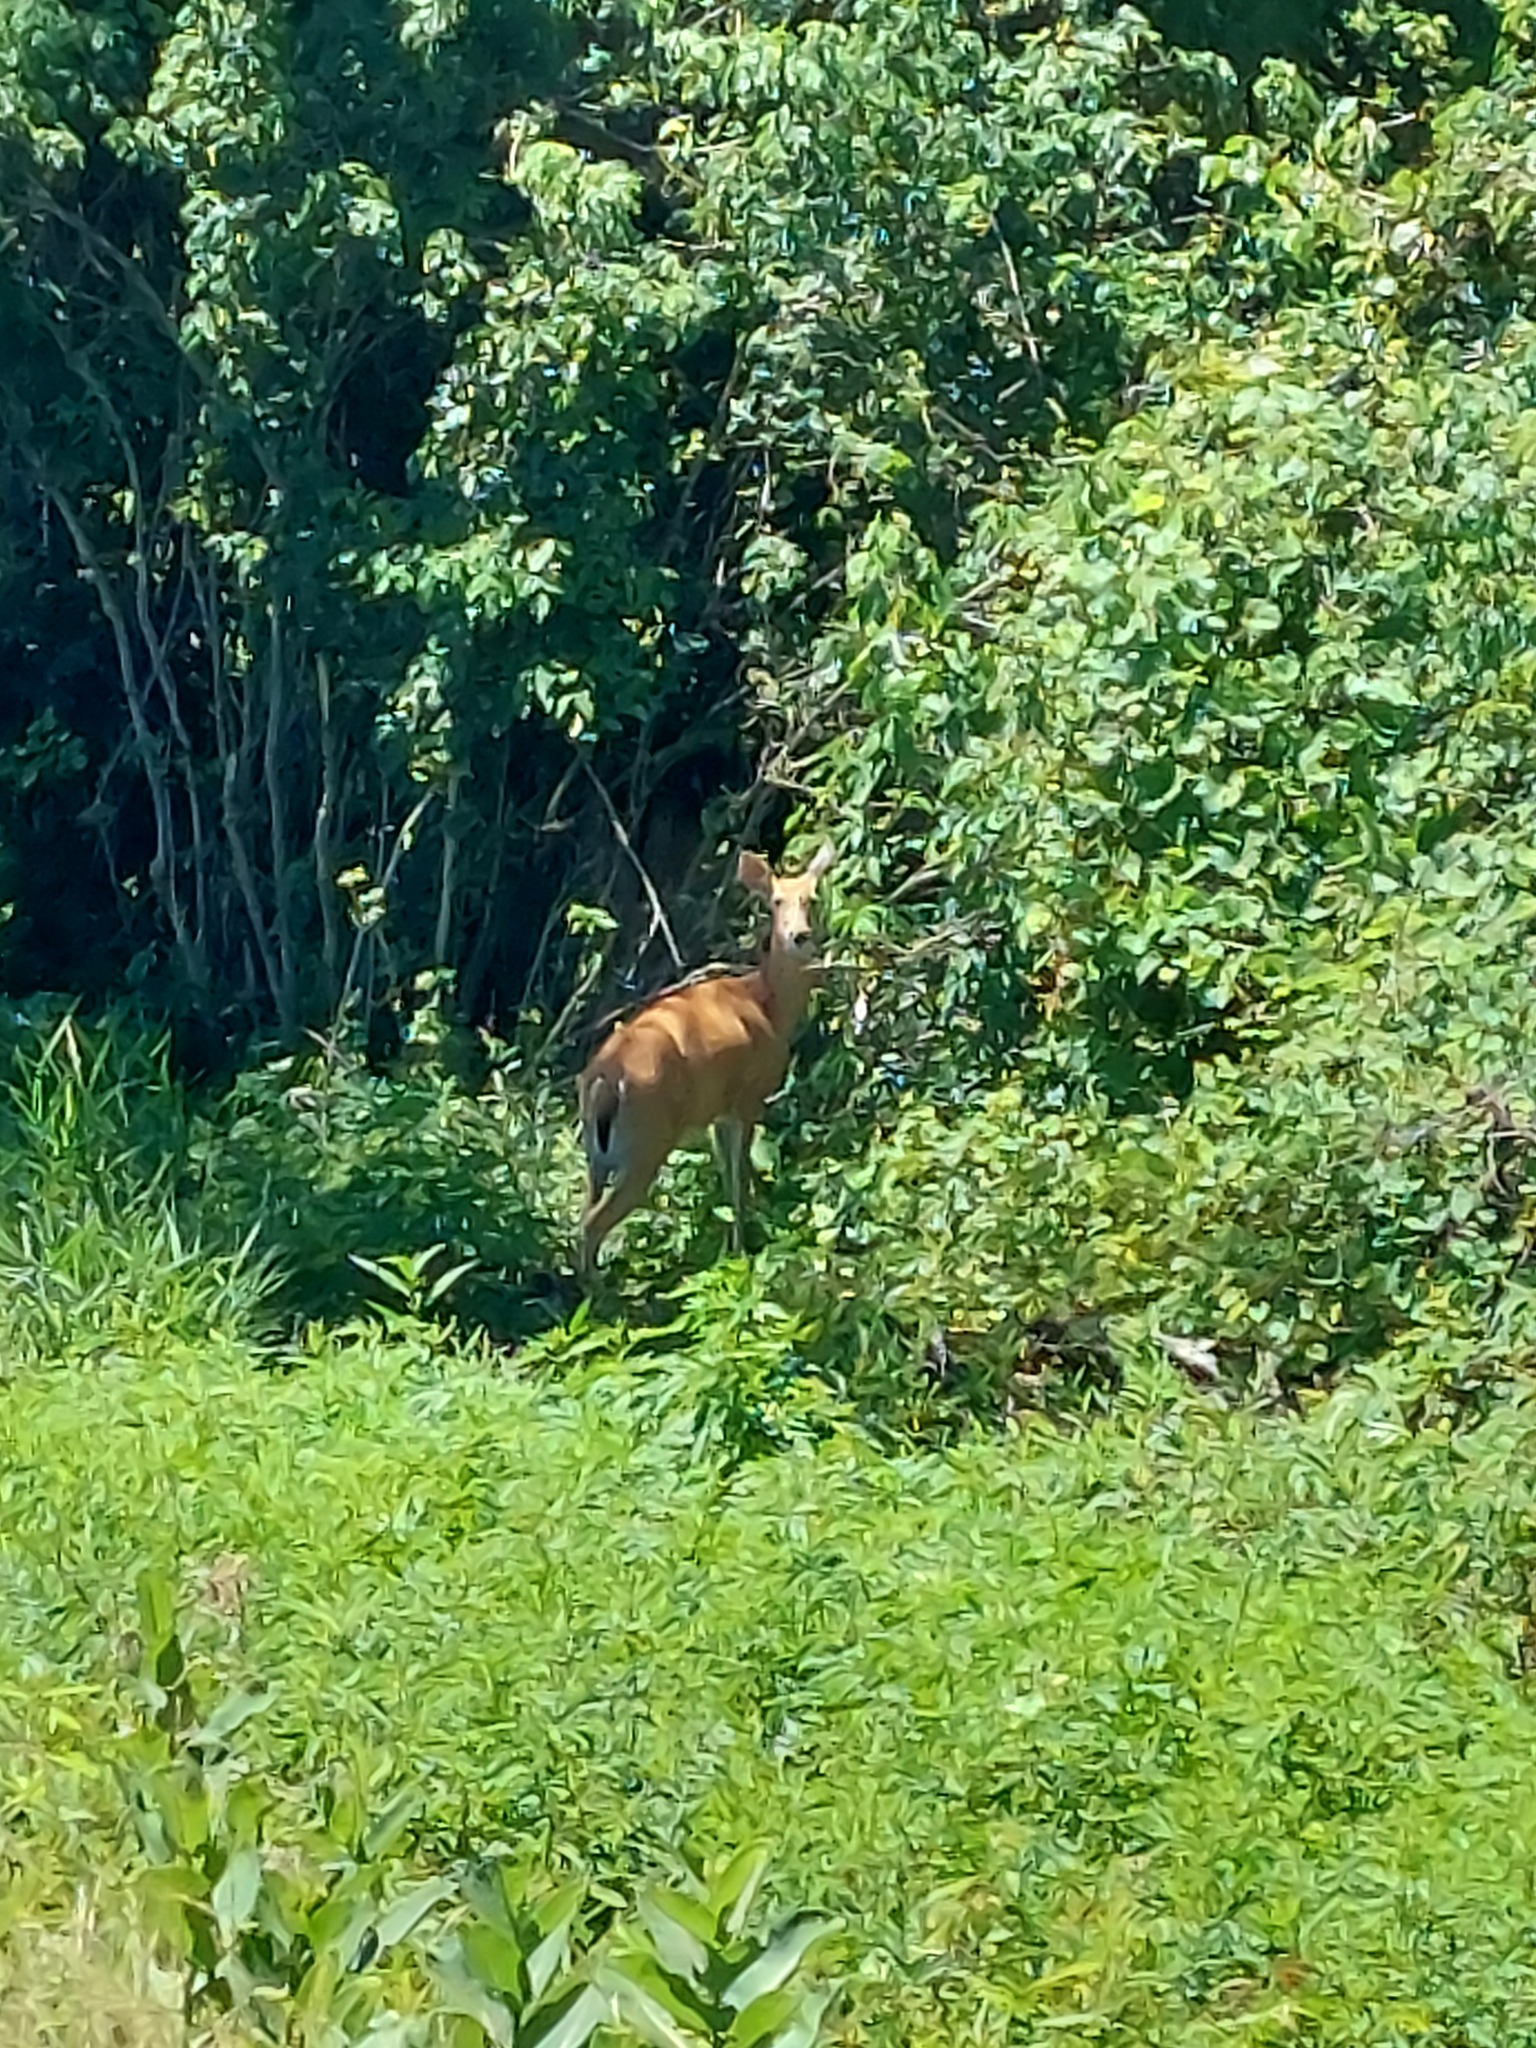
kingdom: Animalia
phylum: Chordata
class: Mammalia
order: Artiodactyla
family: Cervidae
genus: Odocoileus
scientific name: Odocoileus virginianus
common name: White-tailed deer
